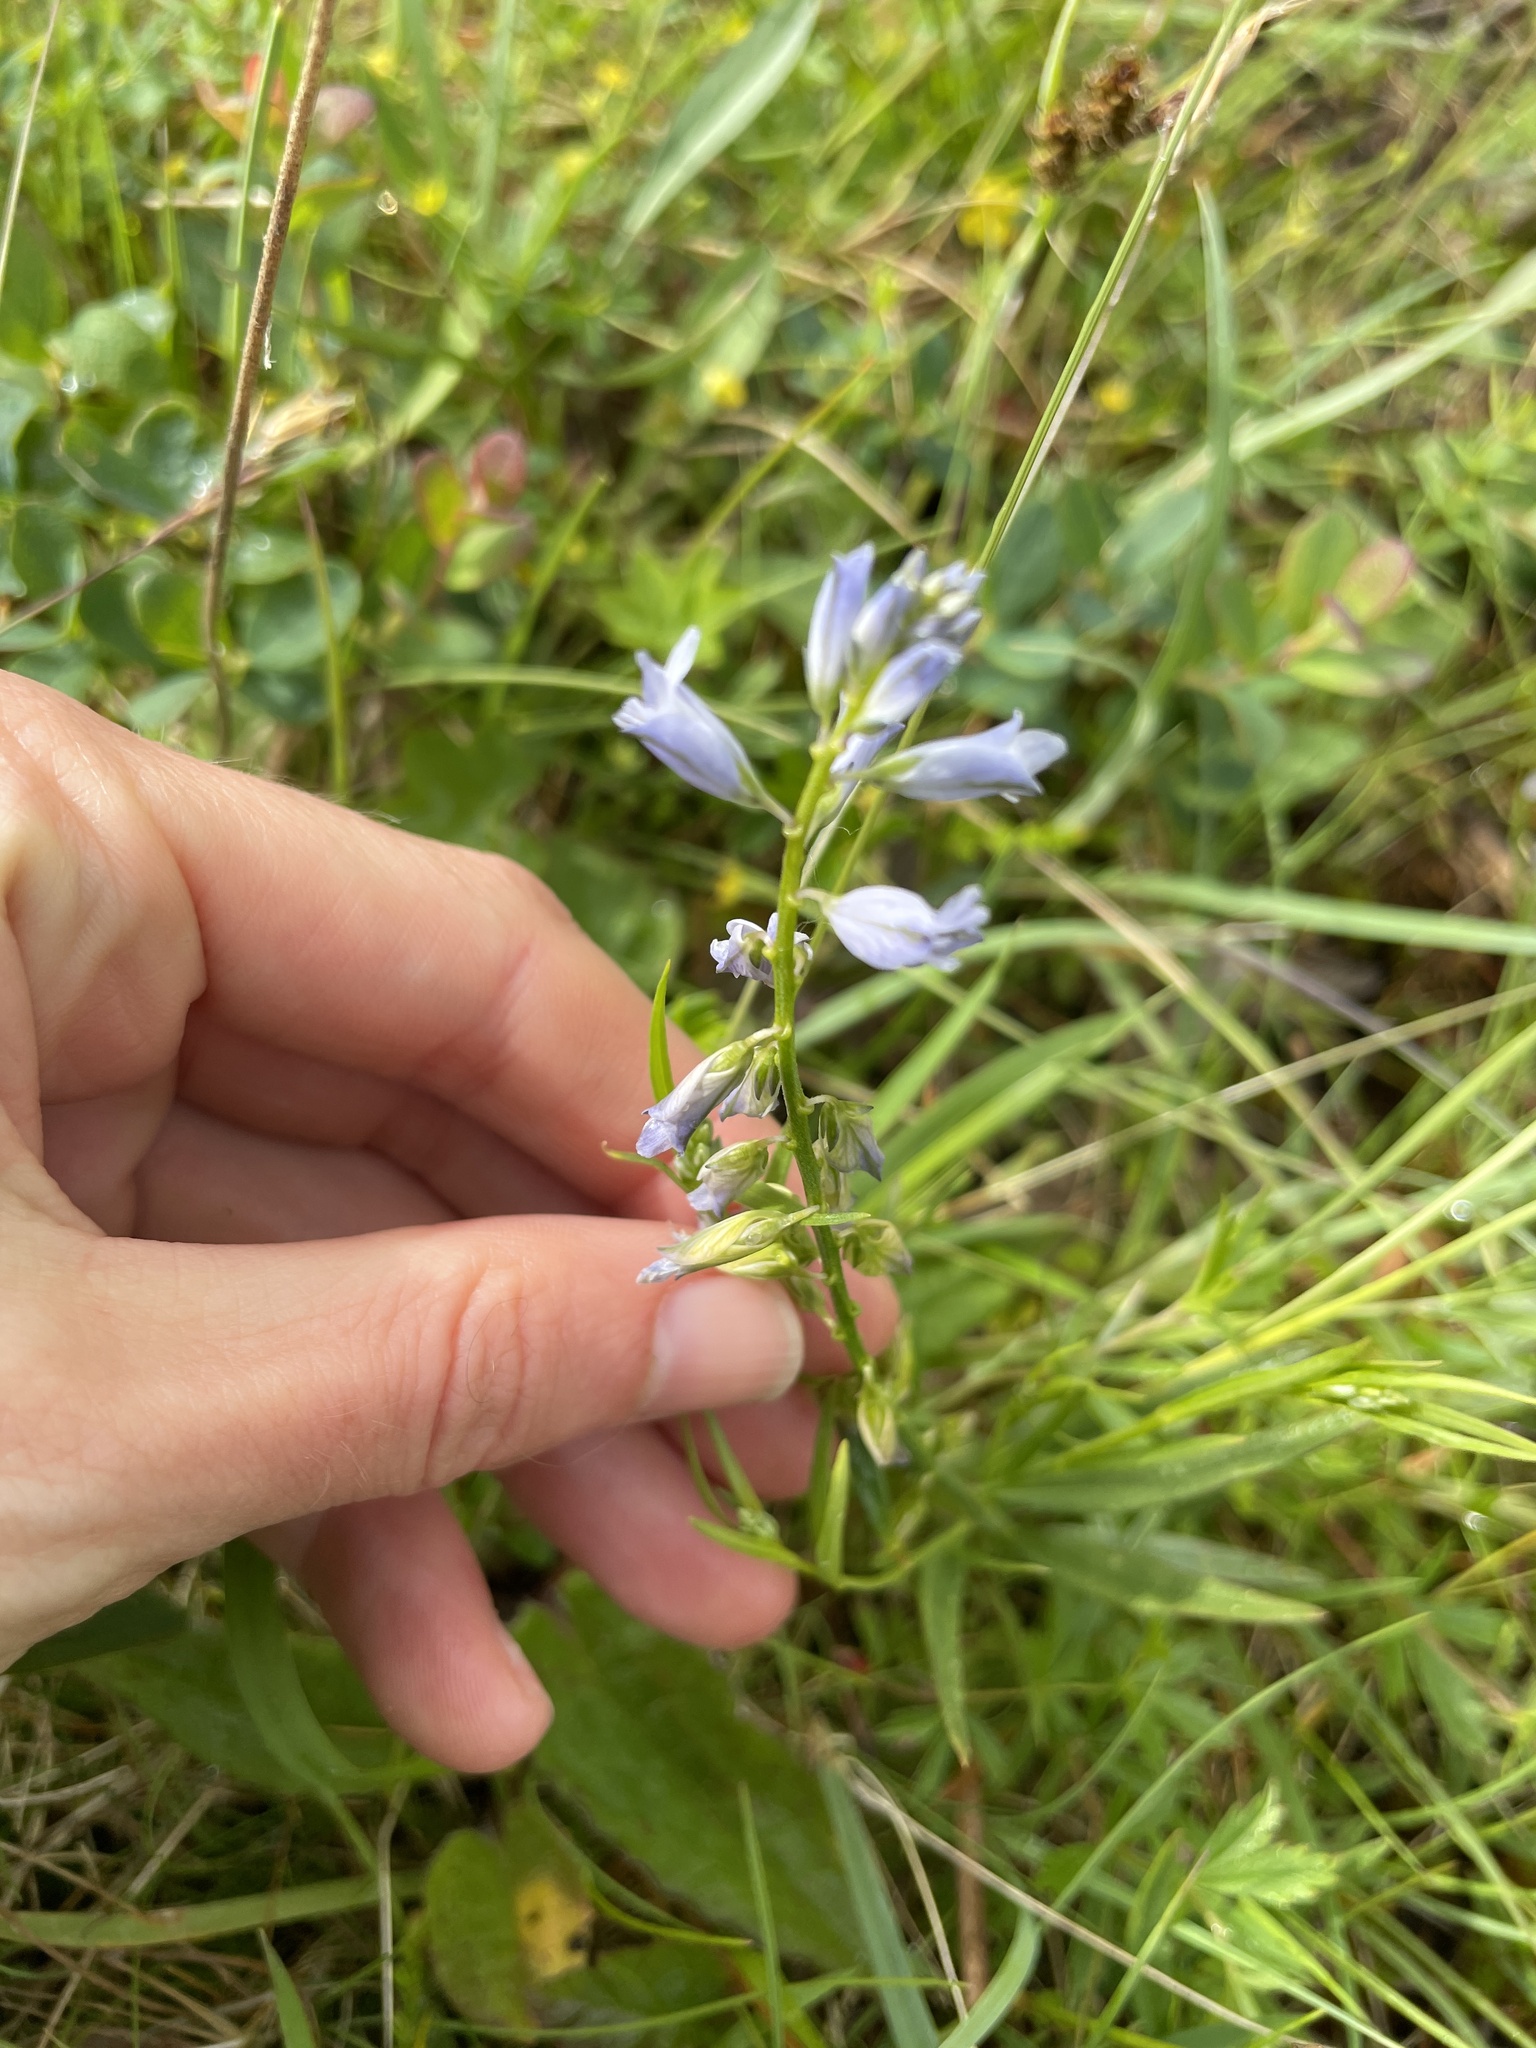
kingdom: Plantae
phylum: Tracheophyta
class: Magnoliopsida
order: Fabales
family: Polygalaceae
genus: Polygala
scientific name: Polygala vulgaris
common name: Common milkwort
